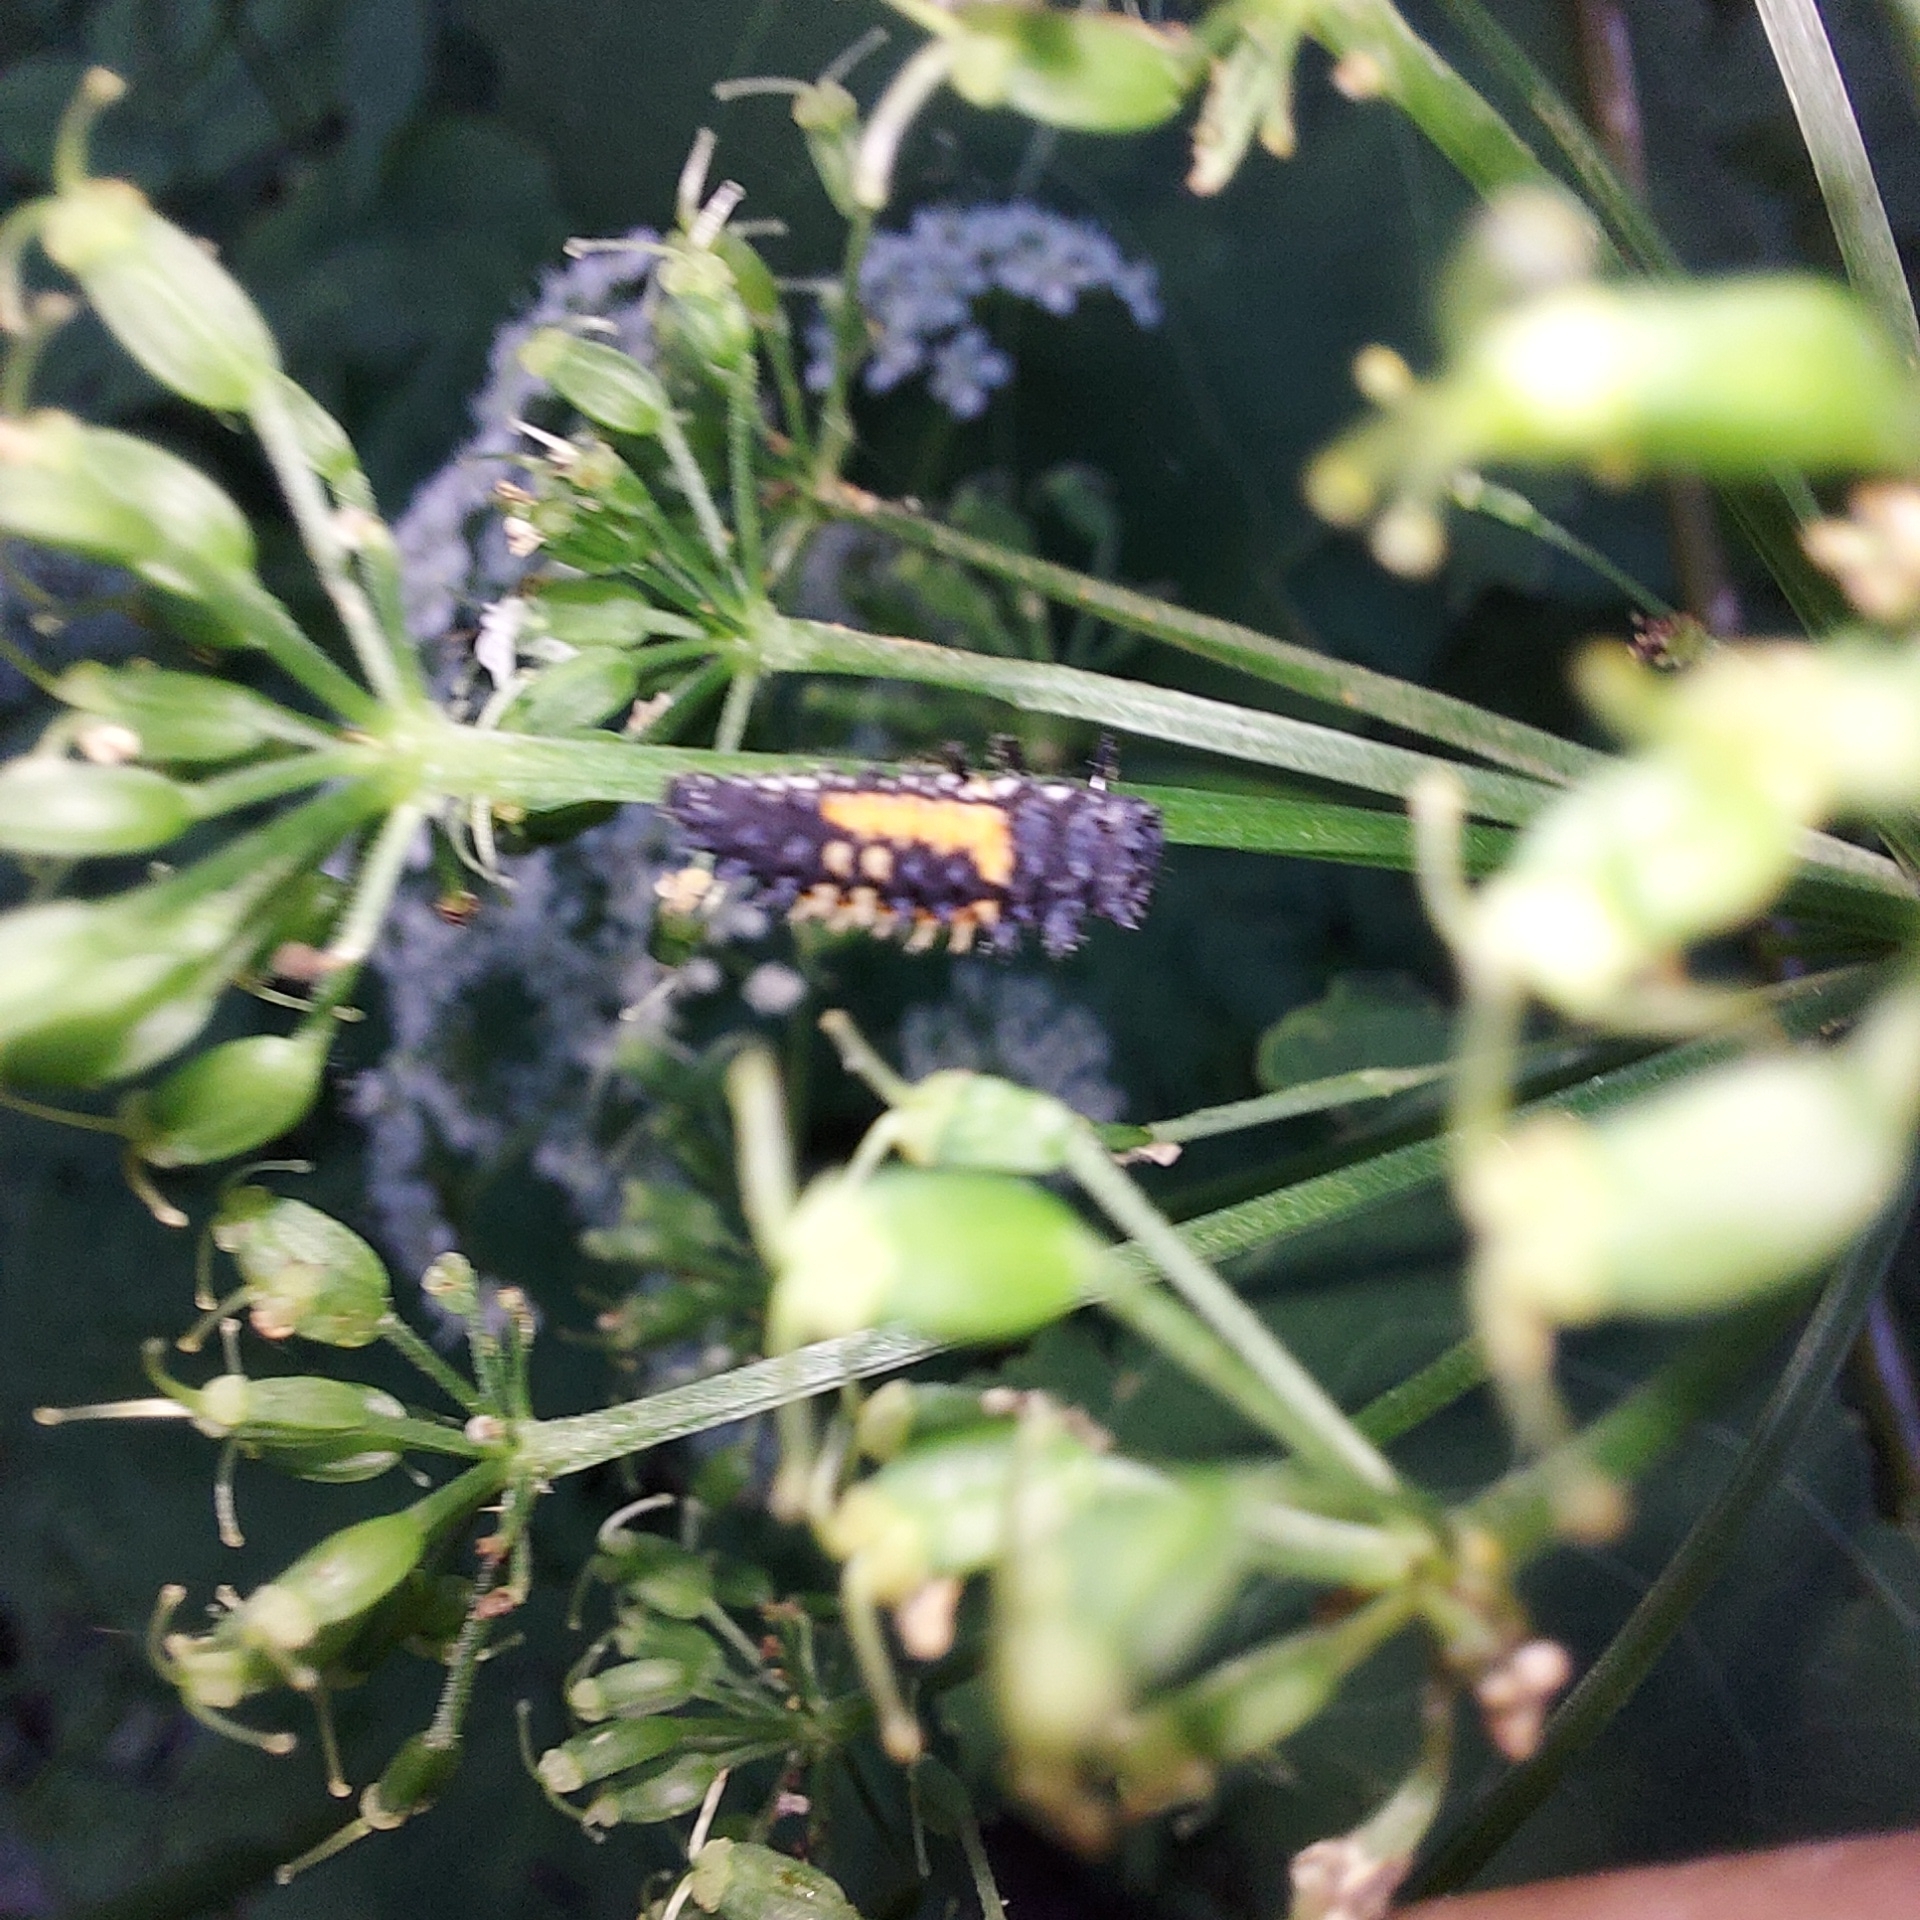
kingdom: Animalia
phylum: Arthropoda
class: Insecta
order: Coleoptera
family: Coccinellidae
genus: Harmonia
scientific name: Harmonia axyridis
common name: Harlequin ladybird
